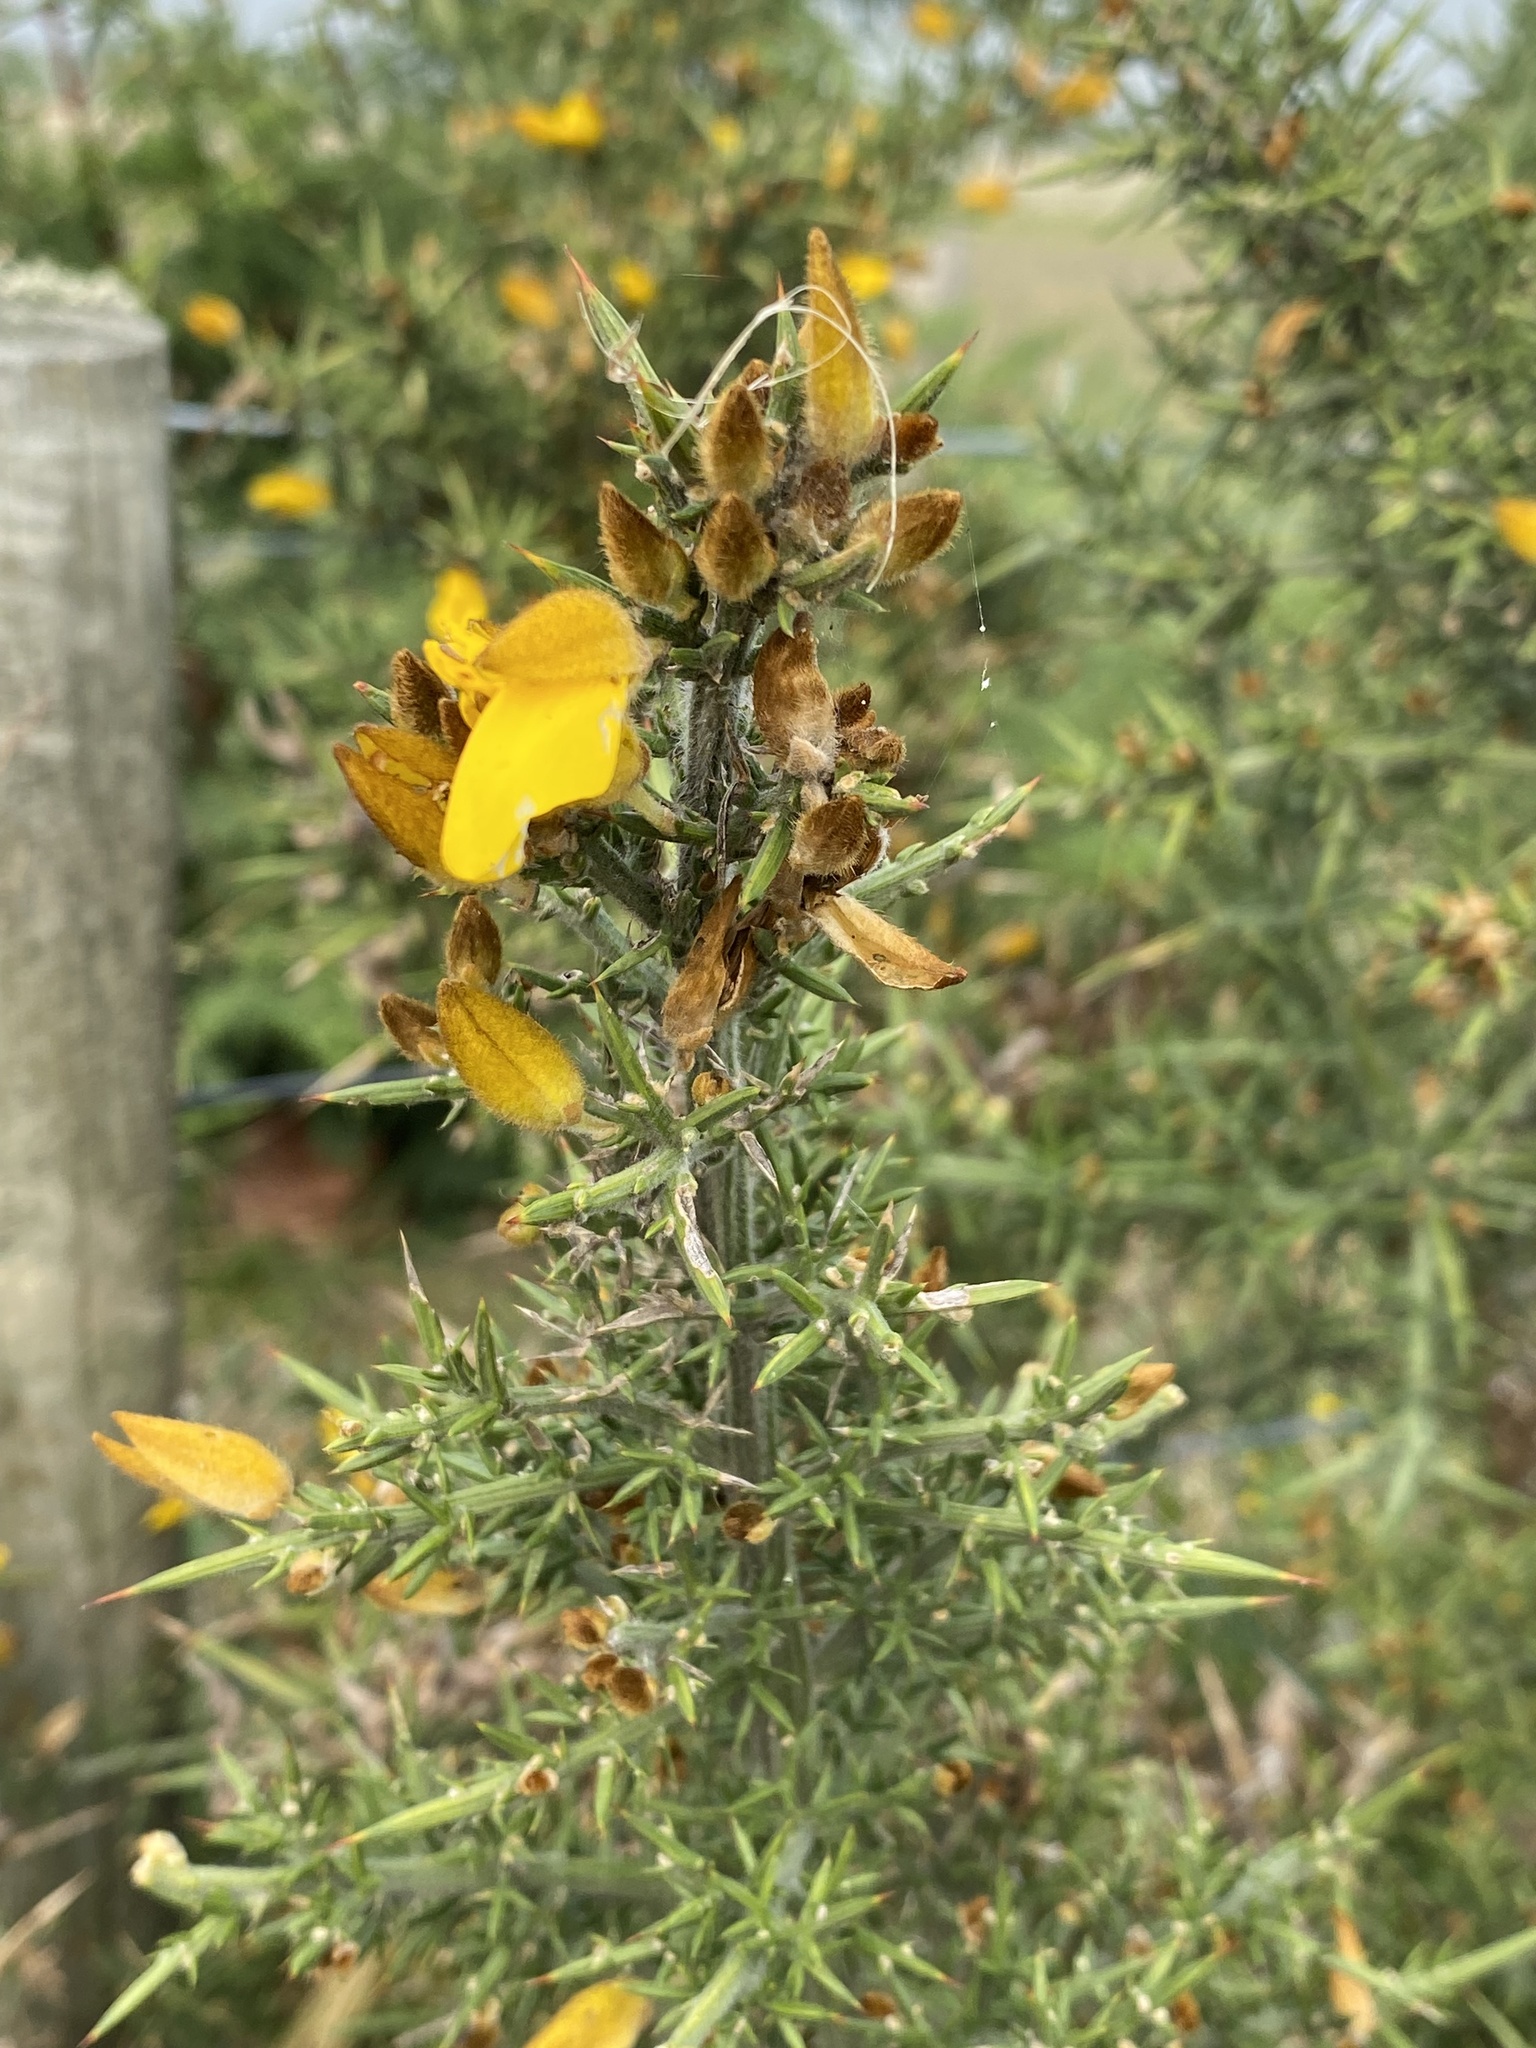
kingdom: Plantae
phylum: Tracheophyta
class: Magnoliopsida
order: Fabales
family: Fabaceae
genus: Ulex
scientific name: Ulex europaeus
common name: Common gorse
